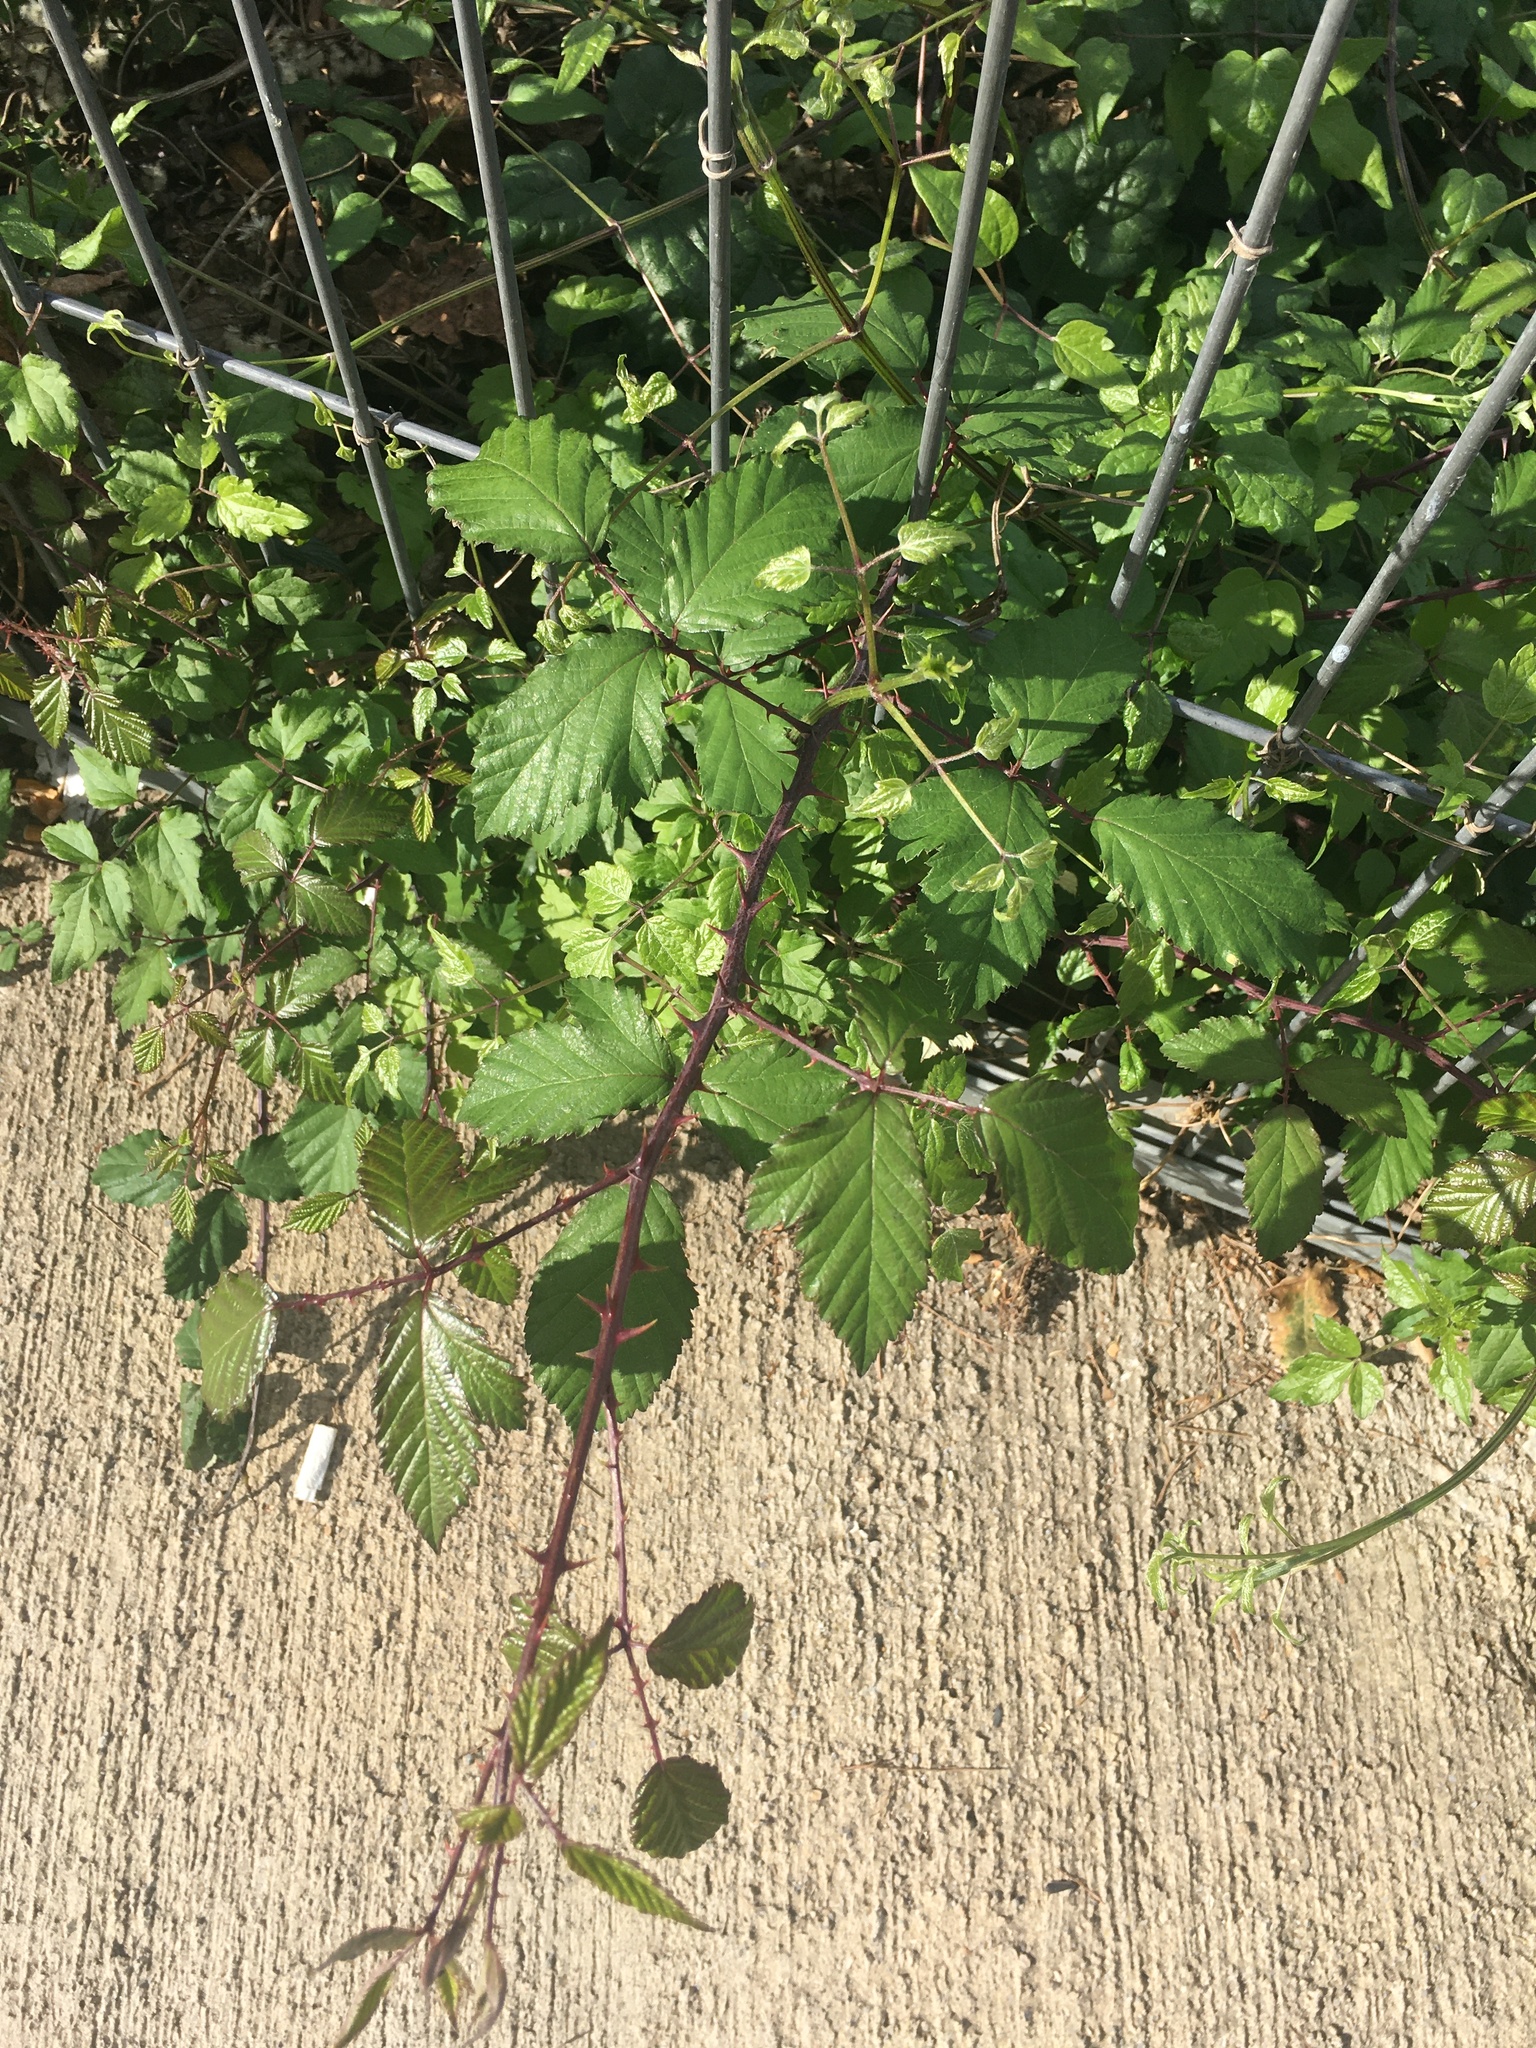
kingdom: Plantae
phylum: Tracheophyta
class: Magnoliopsida
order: Rosales
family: Rosaceae
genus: Rubus
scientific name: Rubus ulmifolius
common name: Elmleaf blackberry
